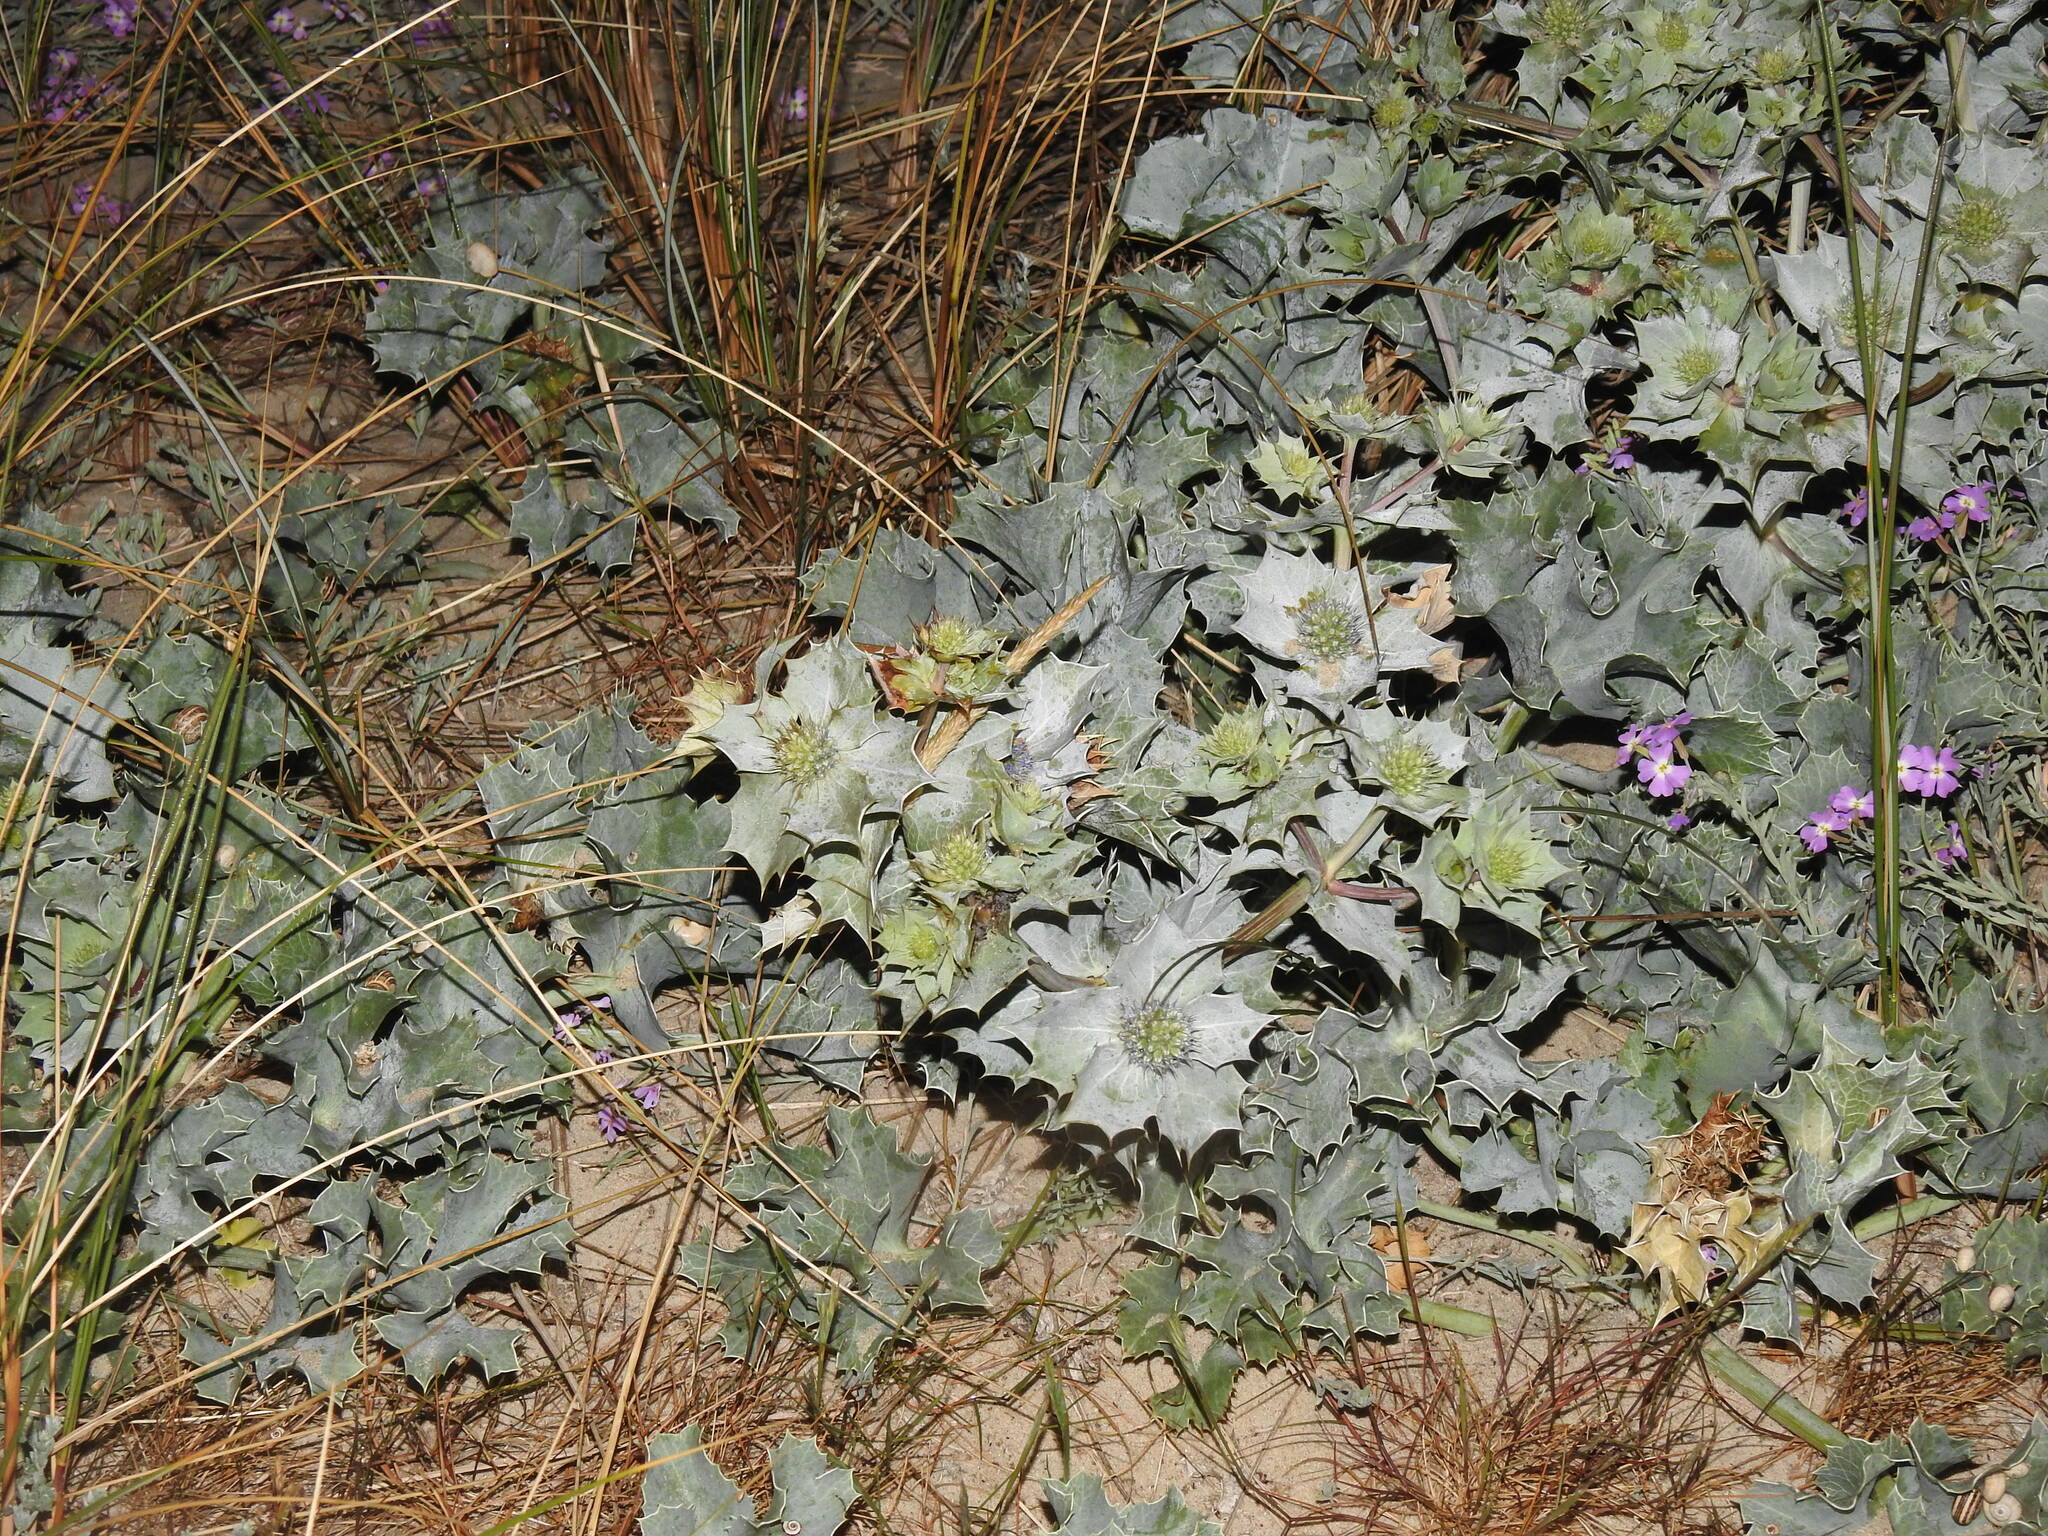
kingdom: Plantae
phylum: Tracheophyta
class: Magnoliopsida
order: Apiales
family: Apiaceae
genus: Eryngium
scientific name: Eryngium maritimum
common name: Sea-holly
